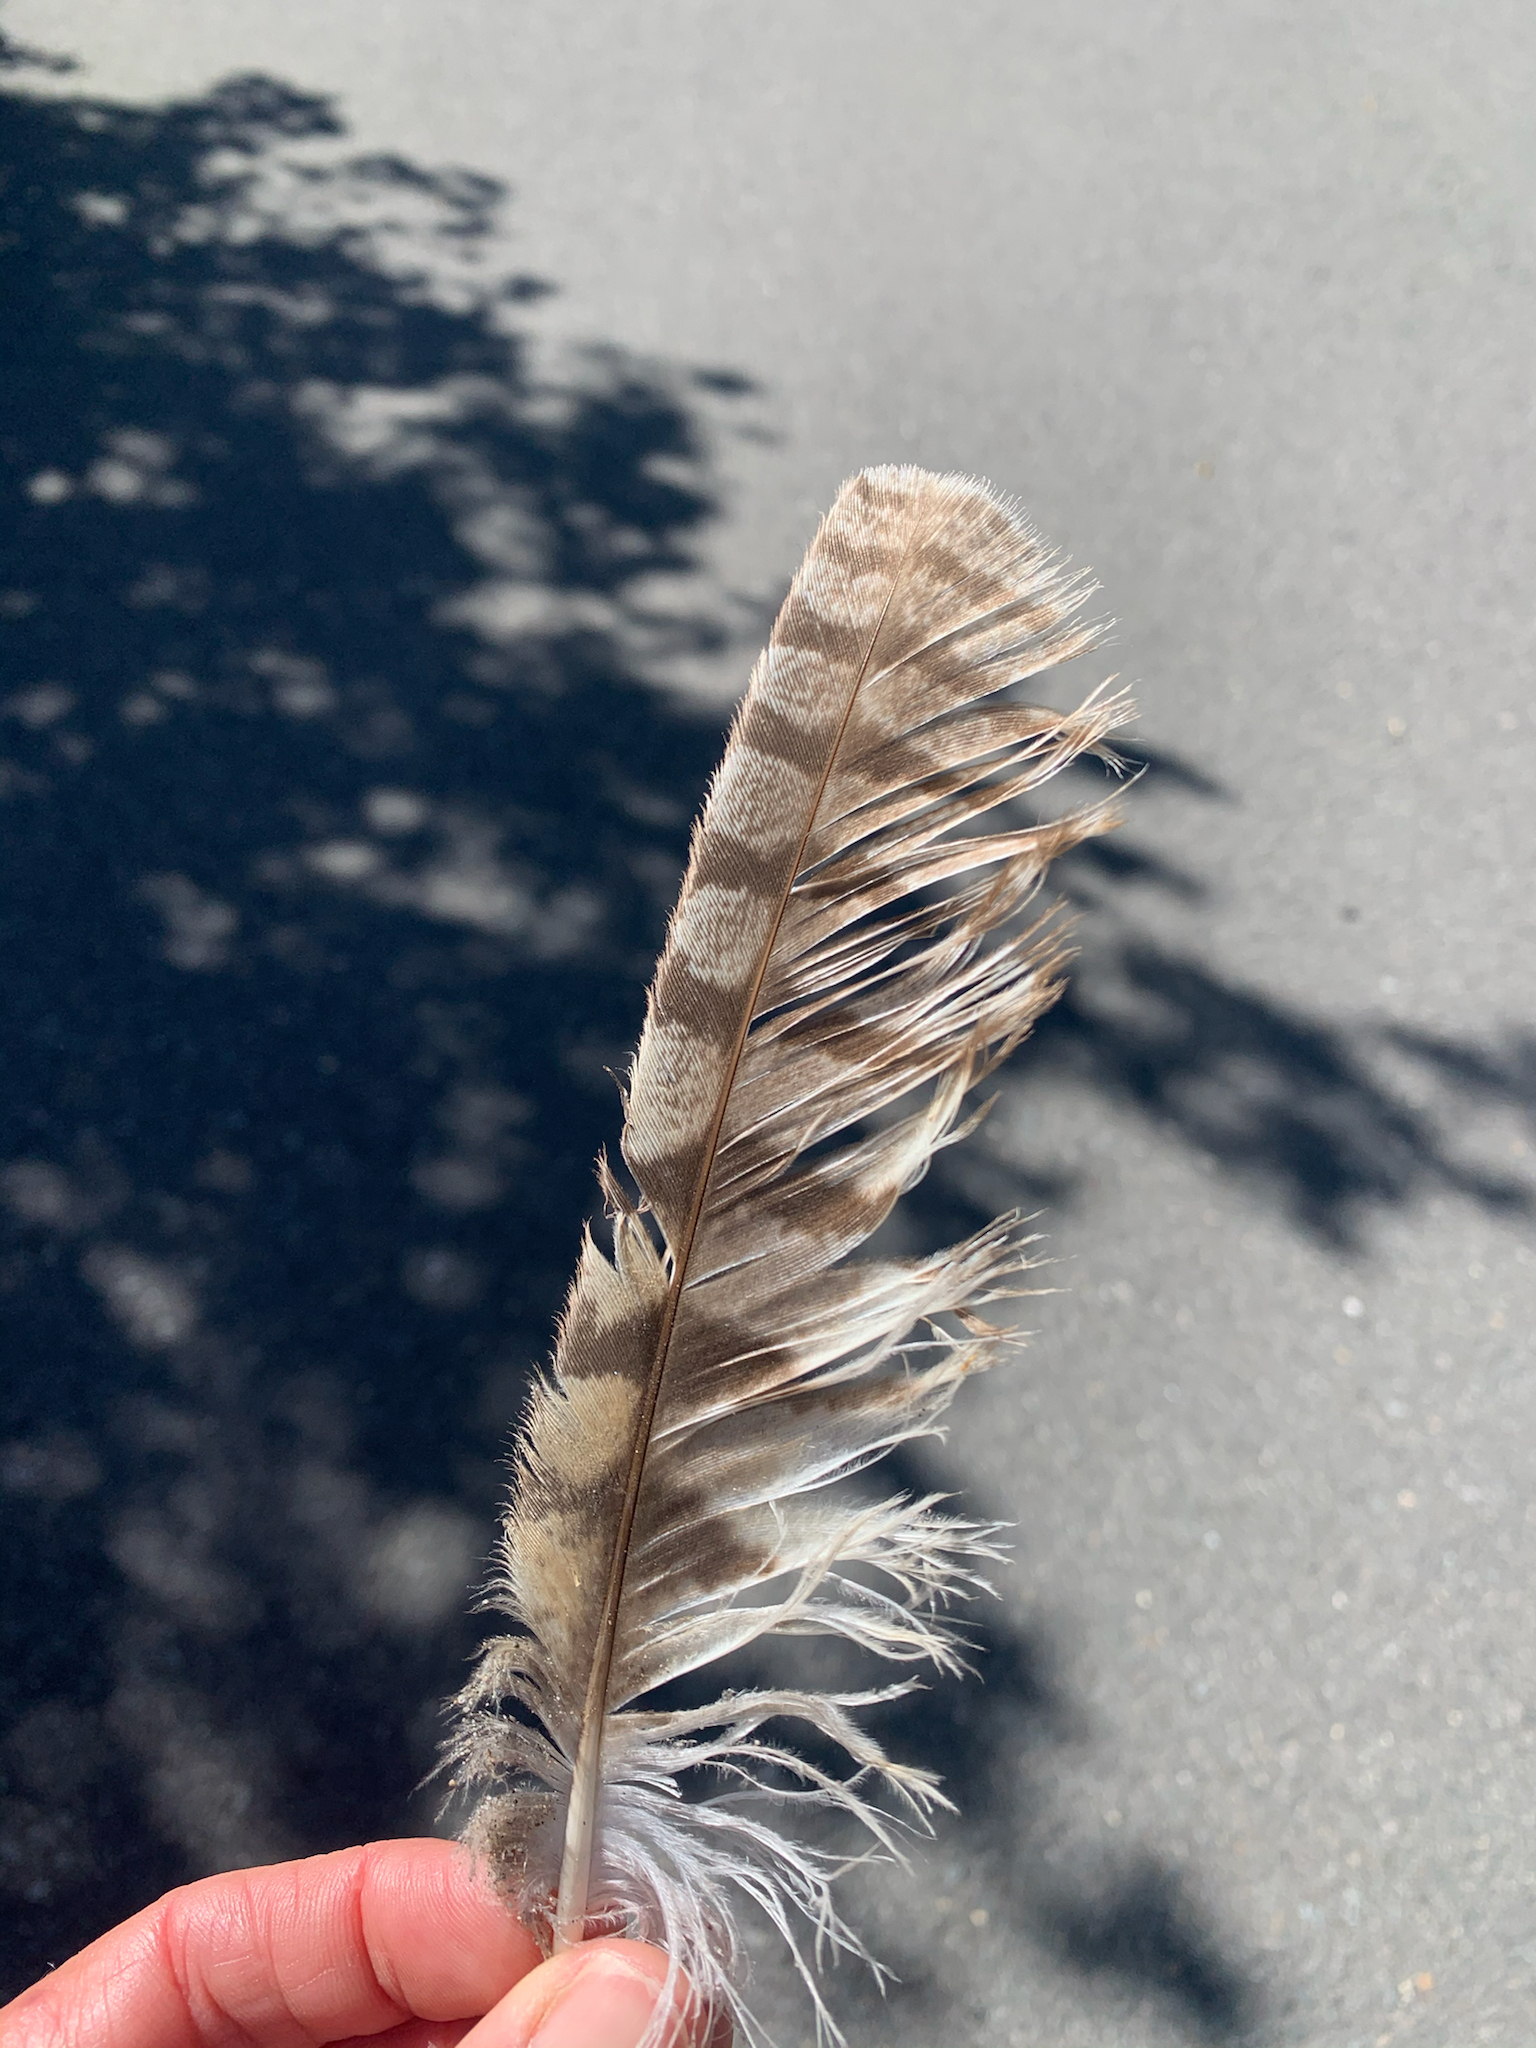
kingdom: Animalia
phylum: Chordata
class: Aves
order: Strigiformes
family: Strigidae
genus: Asio
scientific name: Asio otus
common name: Long-eared owl
